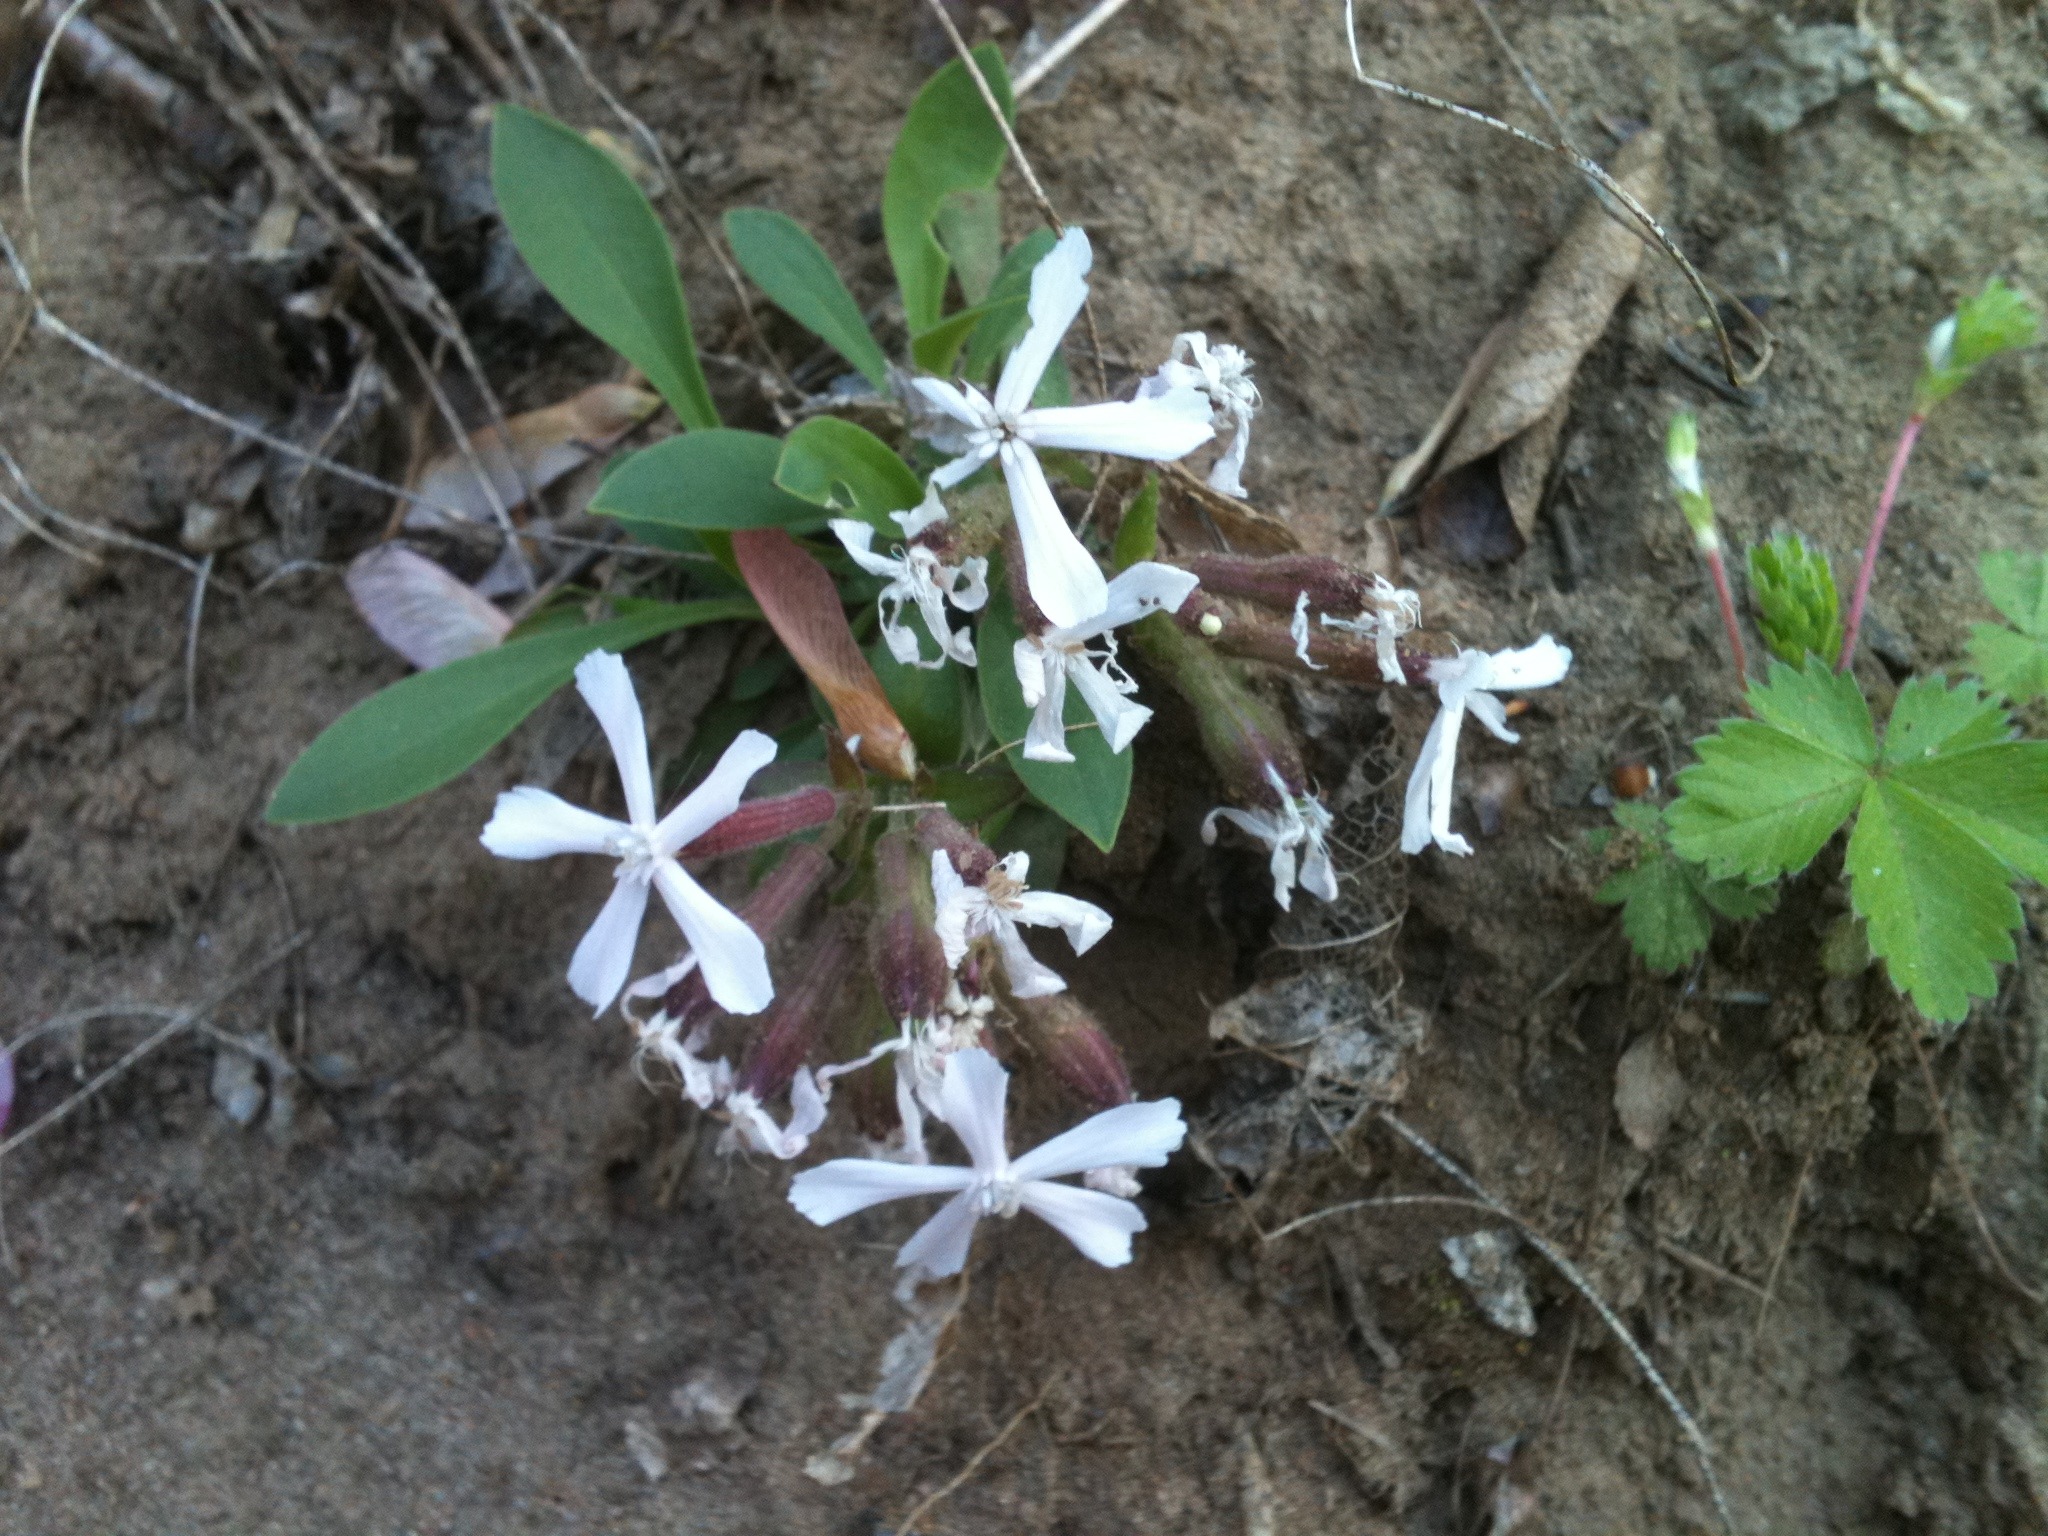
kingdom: Plantae
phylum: Tracheophyta
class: Magnoliopsida
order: Caryophyllales
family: Caryophyllaceae
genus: Silene
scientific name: Silene caroliniana
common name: Sticky catchfly
